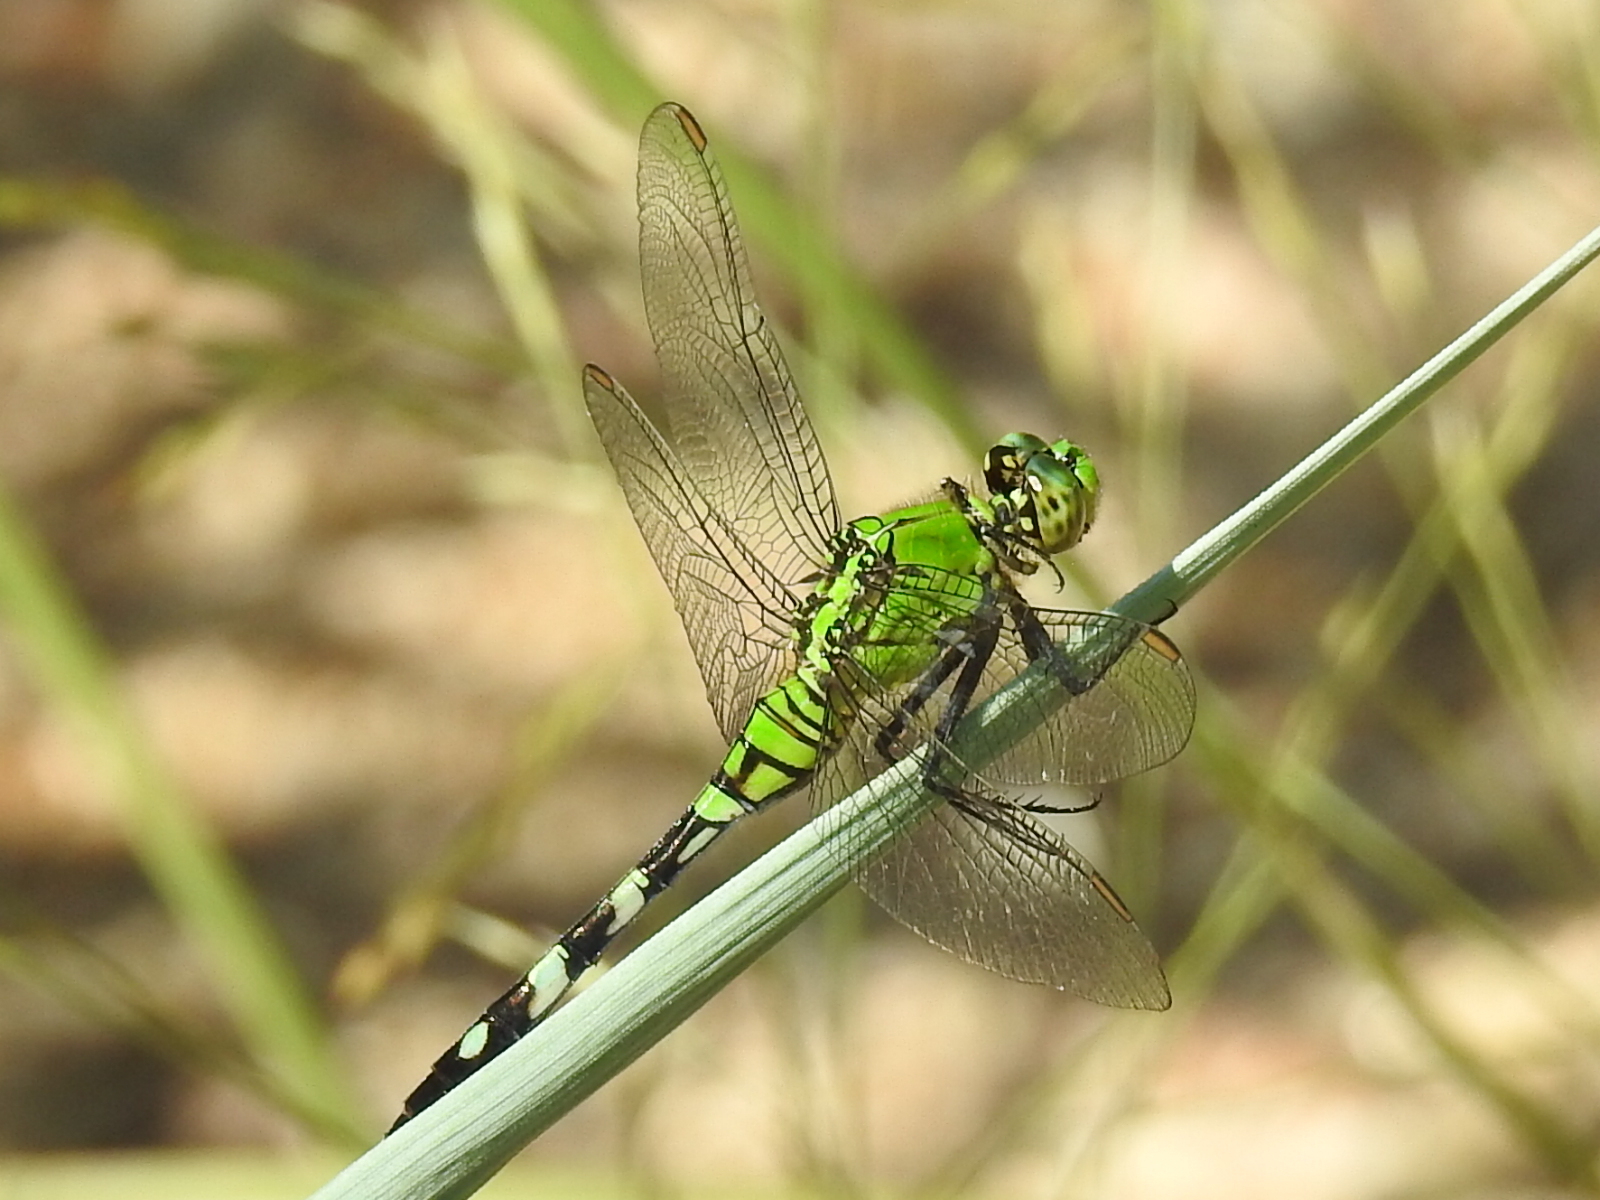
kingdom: Animalia
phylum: Arthropoda
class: Insecta
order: Odonata
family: Libellulidae
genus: Erythemis
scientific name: Erythemis simplicicollis
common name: Eastern pondhawk
